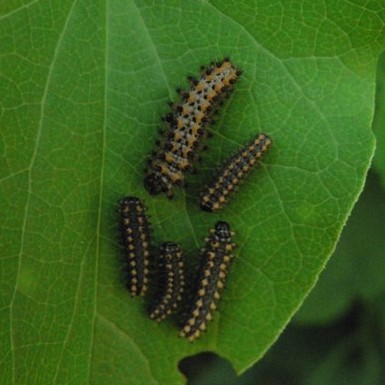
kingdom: Animalia
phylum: Arthropoda
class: Insecta
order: Lepidoptera
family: Papilionidae
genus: Zerynthia
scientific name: Zerynthia polyxena
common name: Southern festoon
